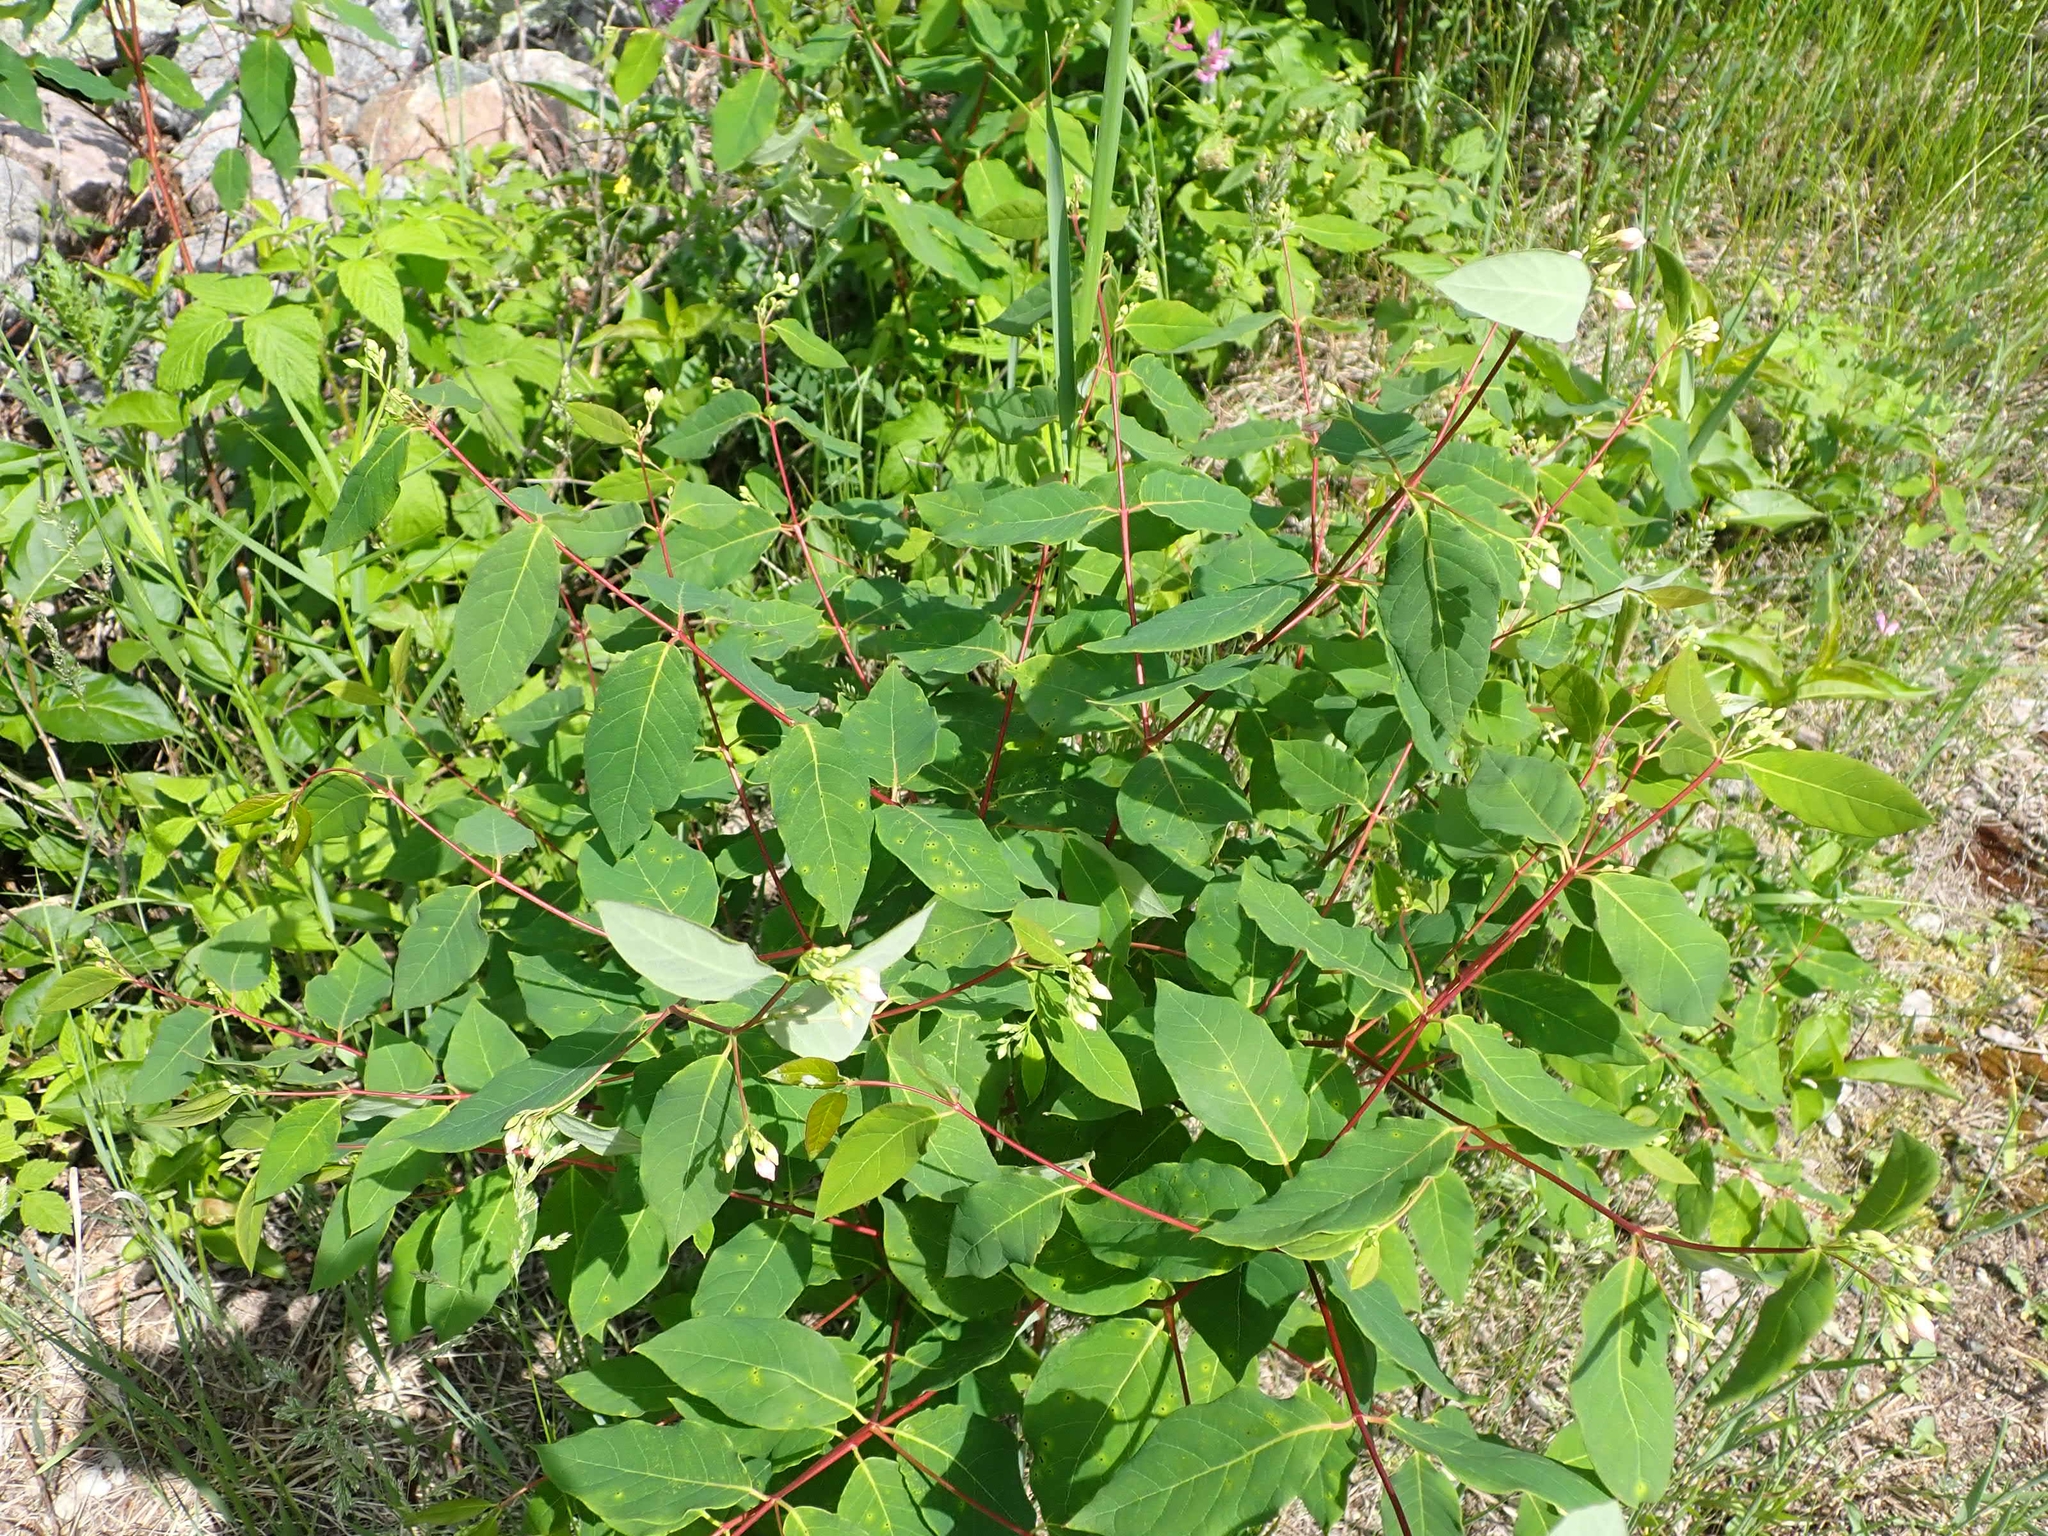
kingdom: Plantae
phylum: Tracheophyta
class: Magnoliopsida
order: Gentianales
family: Apocynaceae
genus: Apocynum
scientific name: Apocynum androsaemifolium
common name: Spreading dogbane
